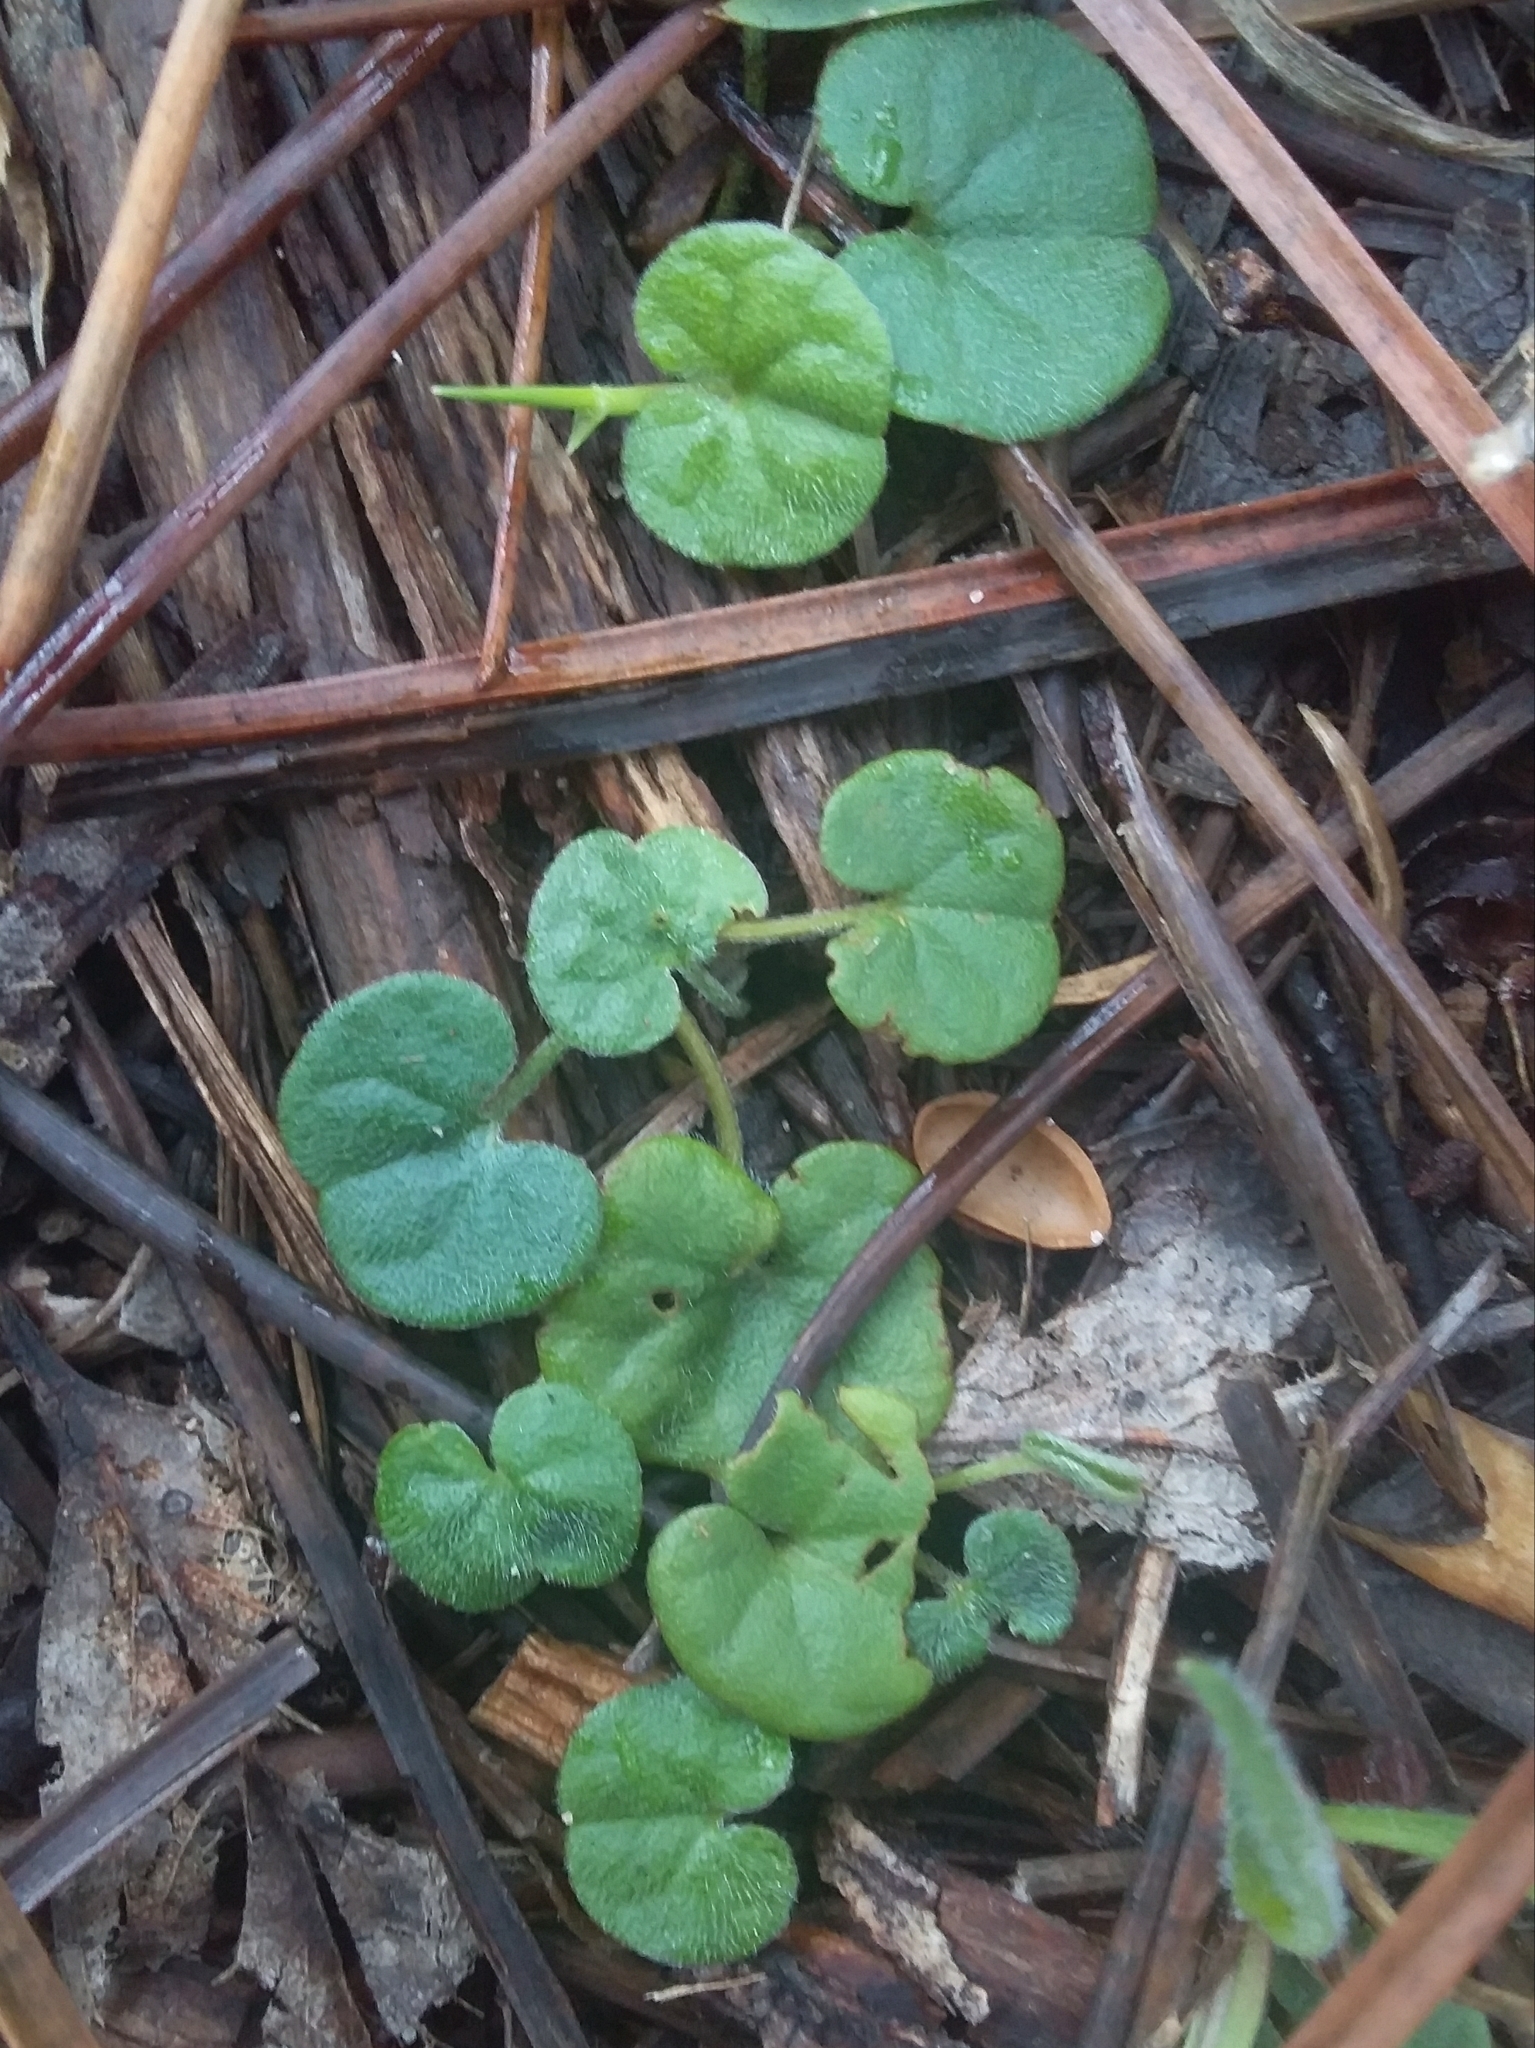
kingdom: Plantae
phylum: Tracheophyta
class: Magnoliopsida
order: Solanales
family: Convolvulaceae
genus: Dichondra
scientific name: Dichondra repens
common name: Kidneyweed
